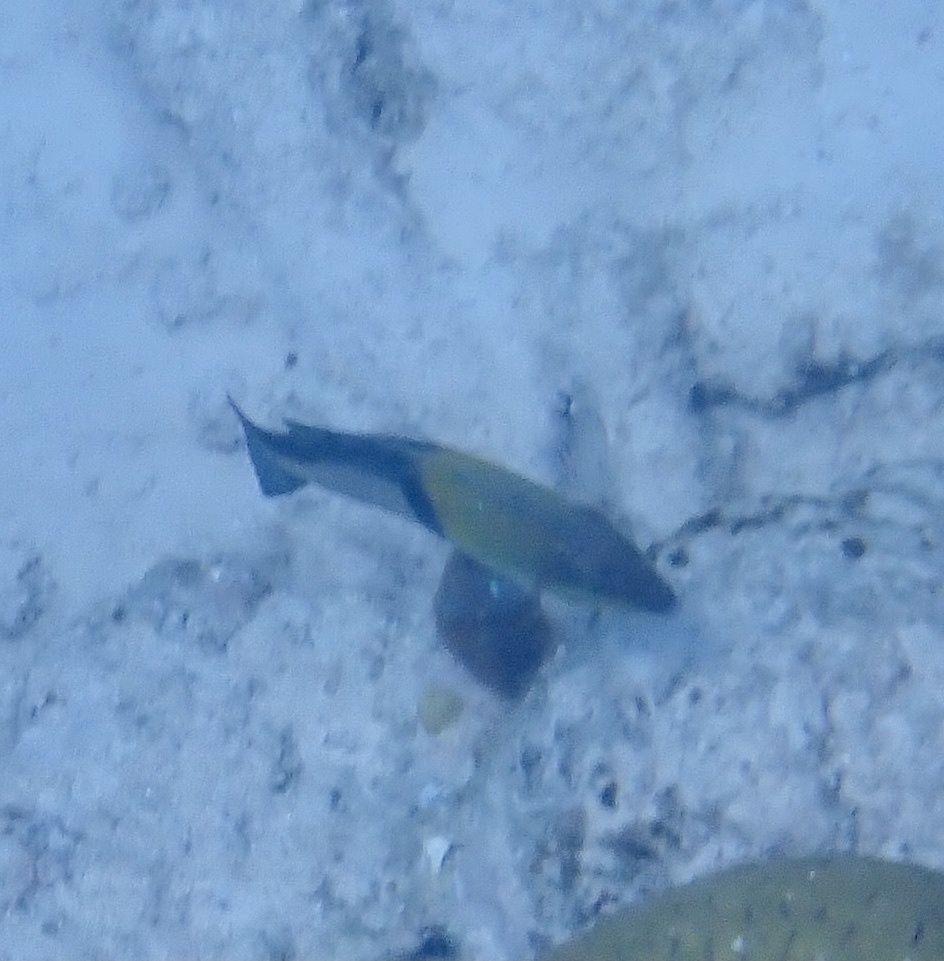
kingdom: Animalia
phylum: Chordata
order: Perciformes
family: Labridae
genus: Halichoeres
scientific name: Halichoeres garnoti
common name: Yellowhead wrasse
